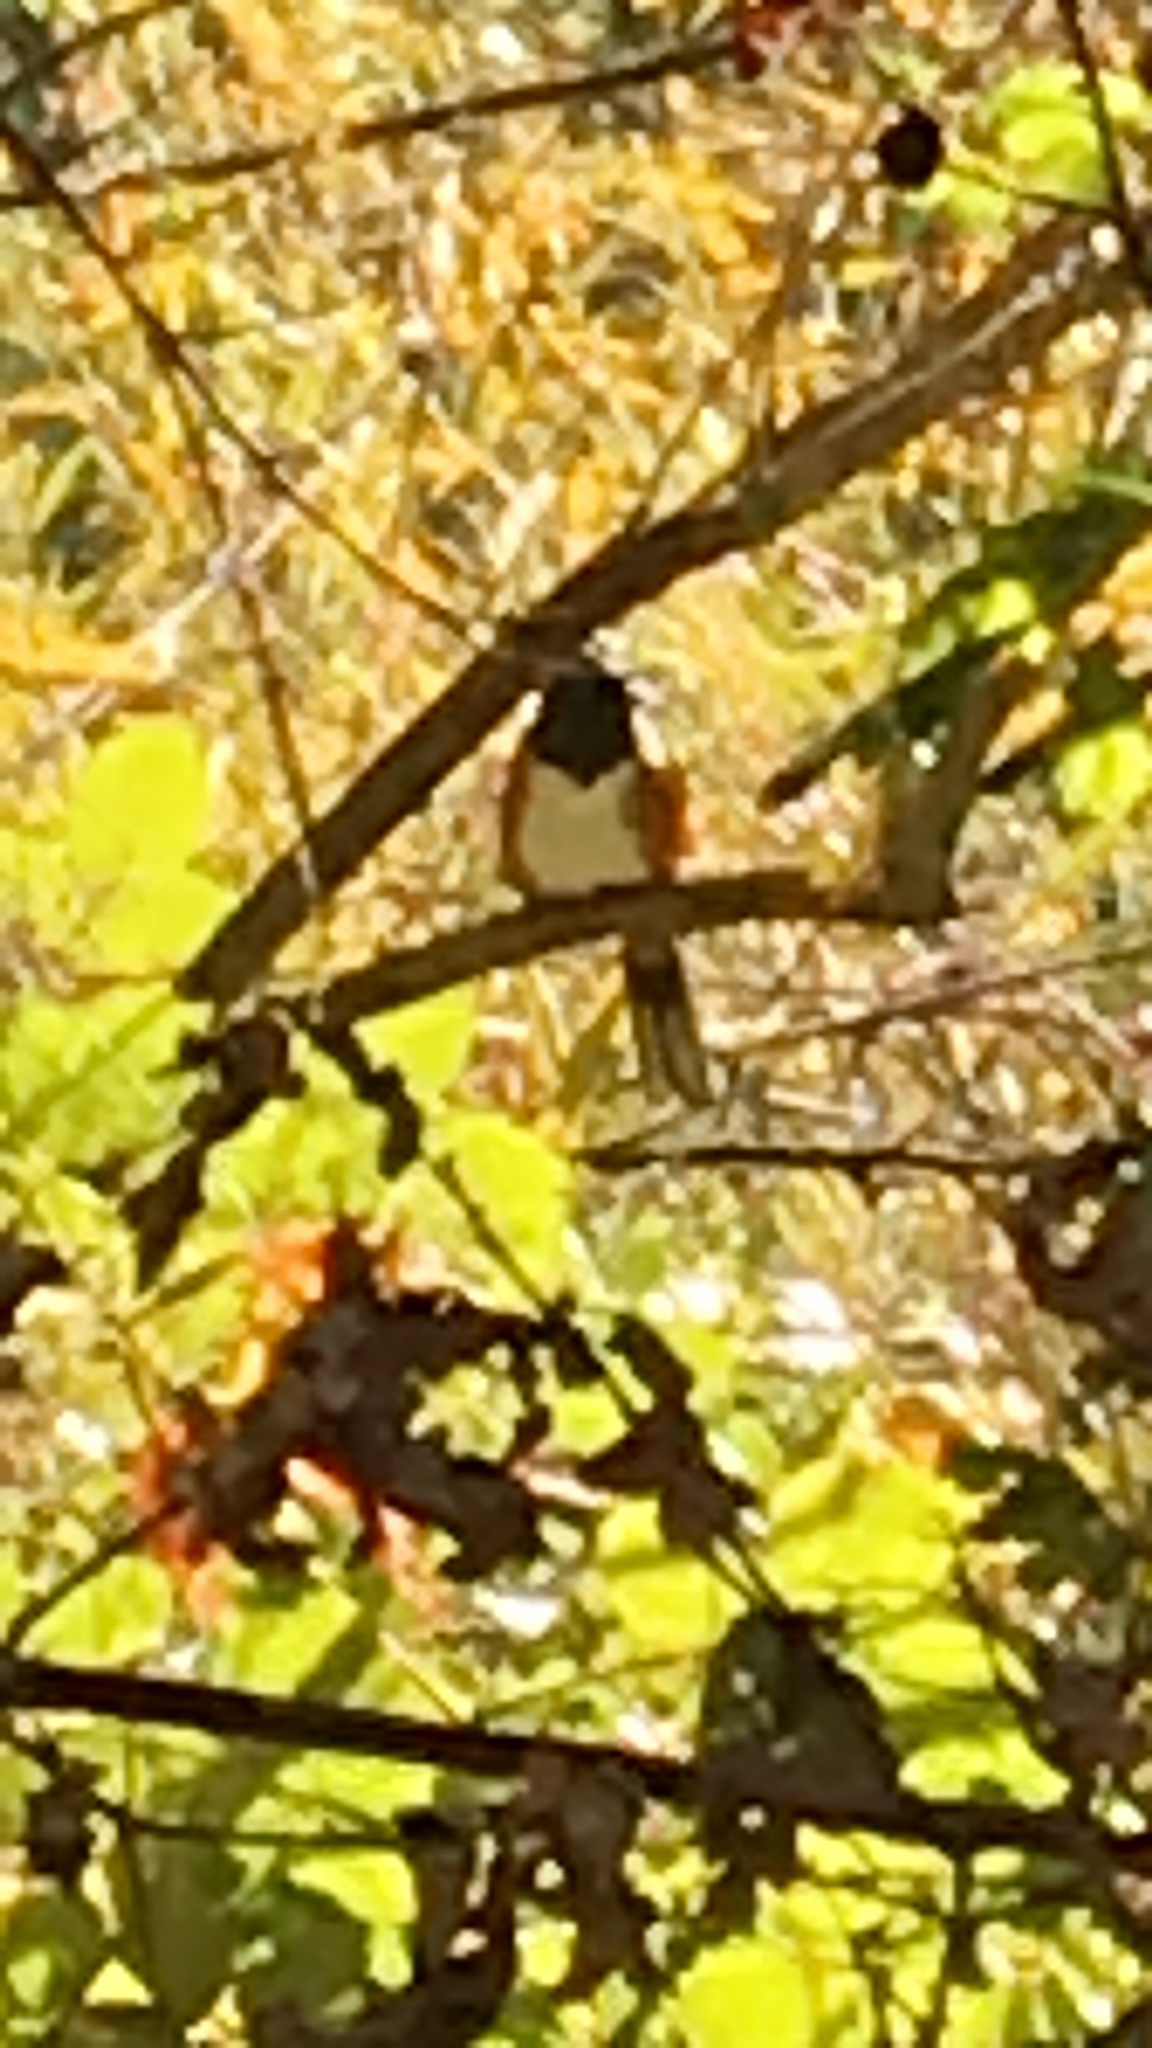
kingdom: Animalia
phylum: Chordata
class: Aves
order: Passeriformes
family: Passerellidae
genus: Pipilo
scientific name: Pipilo maculatus
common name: Spotted towhee
